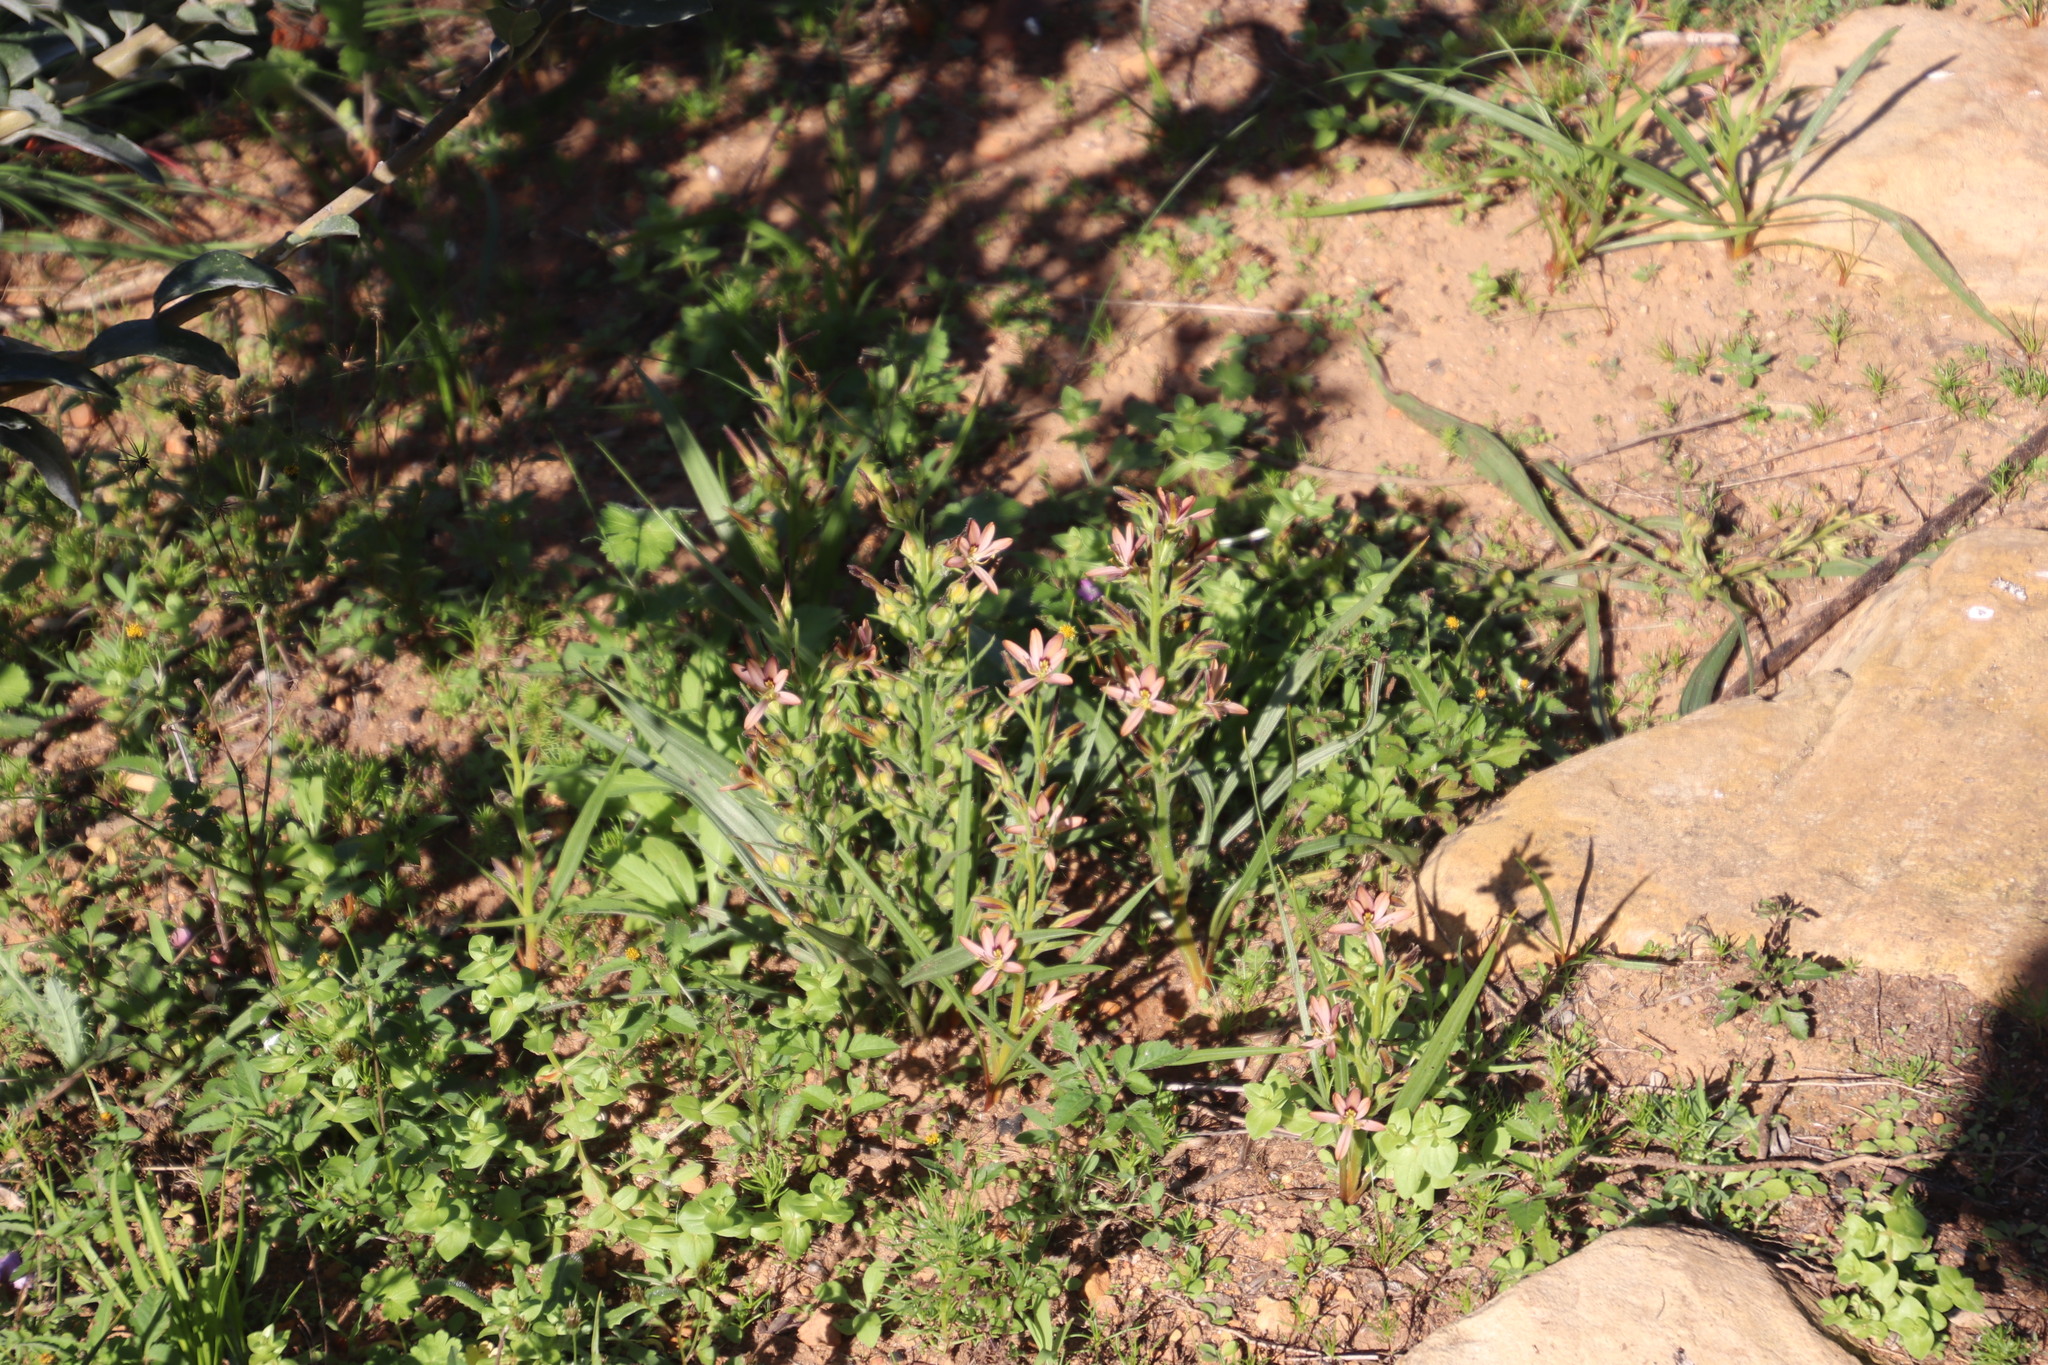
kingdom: Plantae
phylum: Tracheophyta
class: Liliopsida
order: Commelinales
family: Haemodoraceae
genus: Wachendorfia
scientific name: Wachendorfia multiflora
